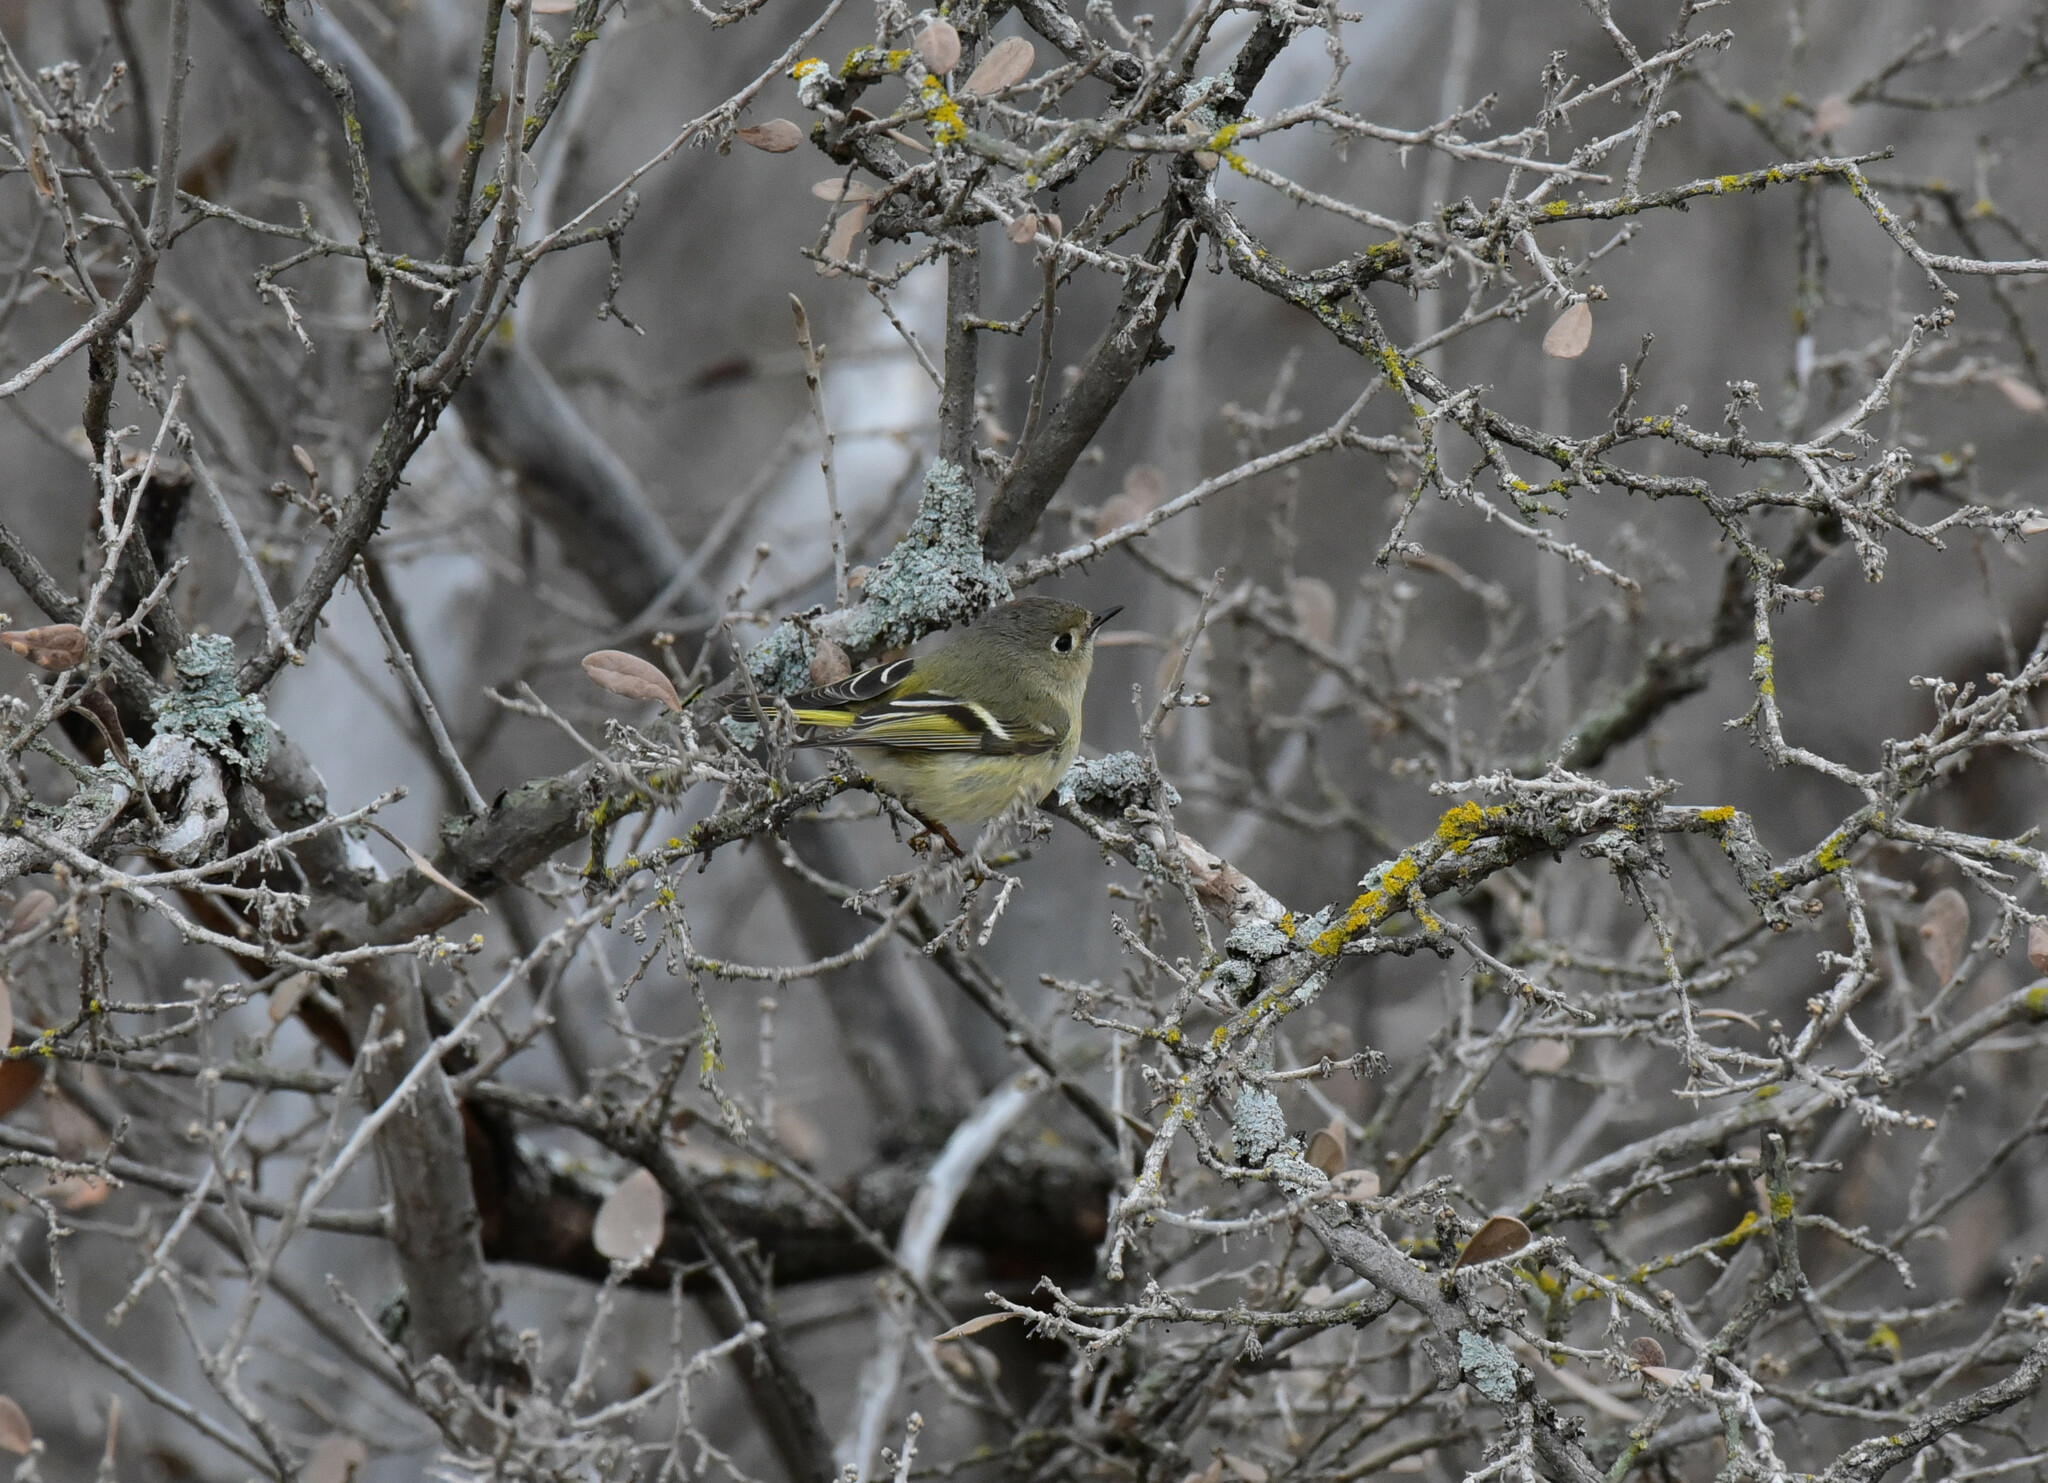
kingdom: Animalia
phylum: Chordata
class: Aves
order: Passeriformes
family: Regulidae
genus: Regulus
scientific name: Regulus calendula
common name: Ruby-crowned kinglet
